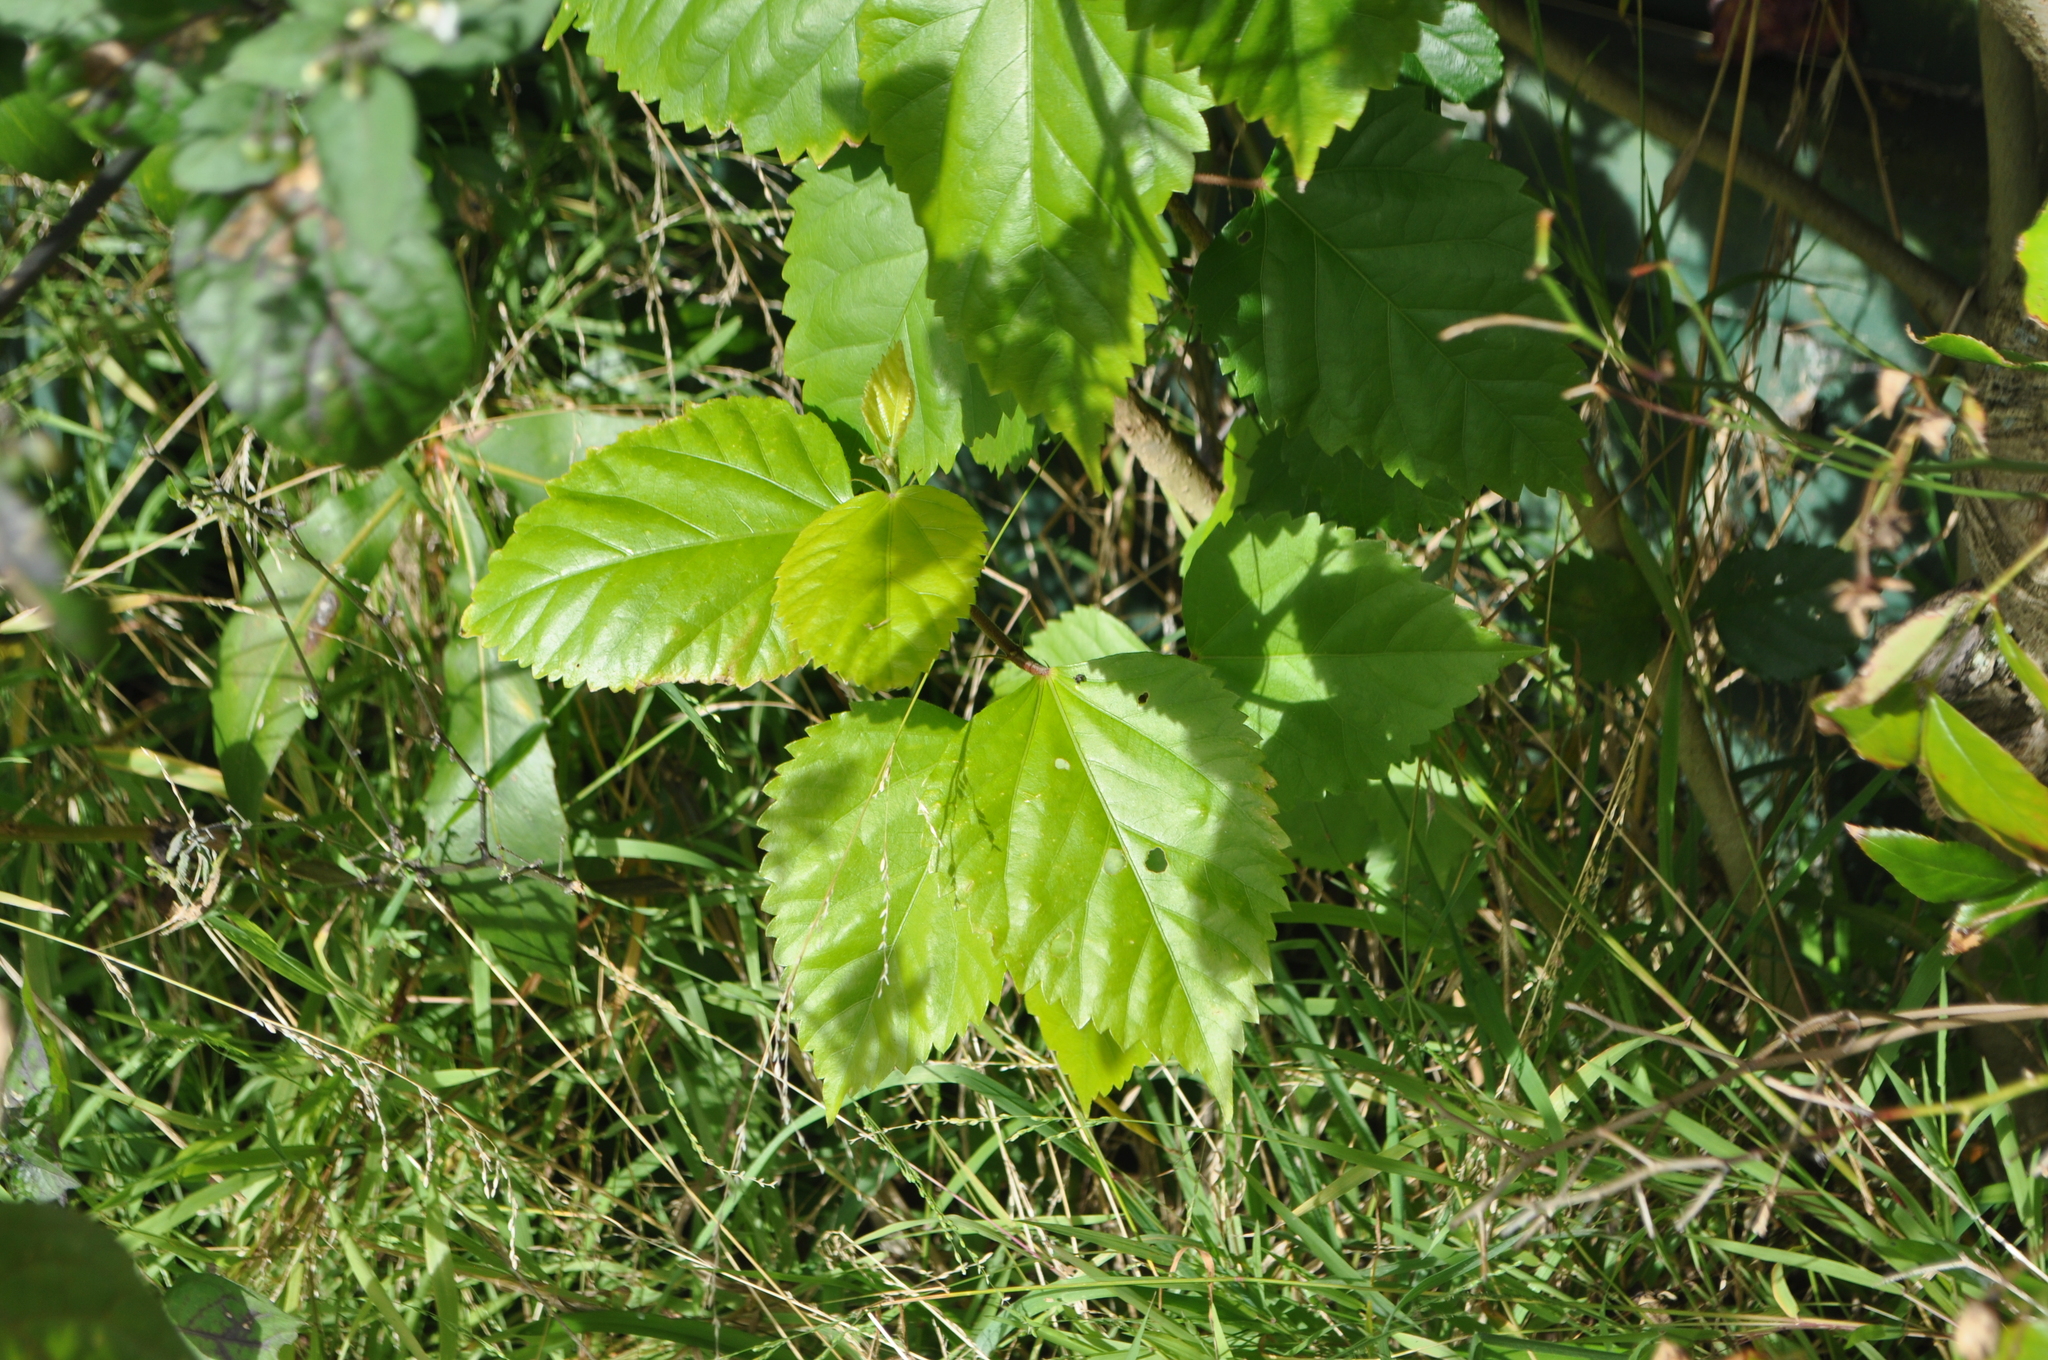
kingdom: Plantae
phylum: Tracheophyta
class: Magnoliopsida
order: Oxalidales
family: Elaeocarpaceae
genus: Aristotelia
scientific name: Aristotelia serrata
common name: New zealand wineberry
